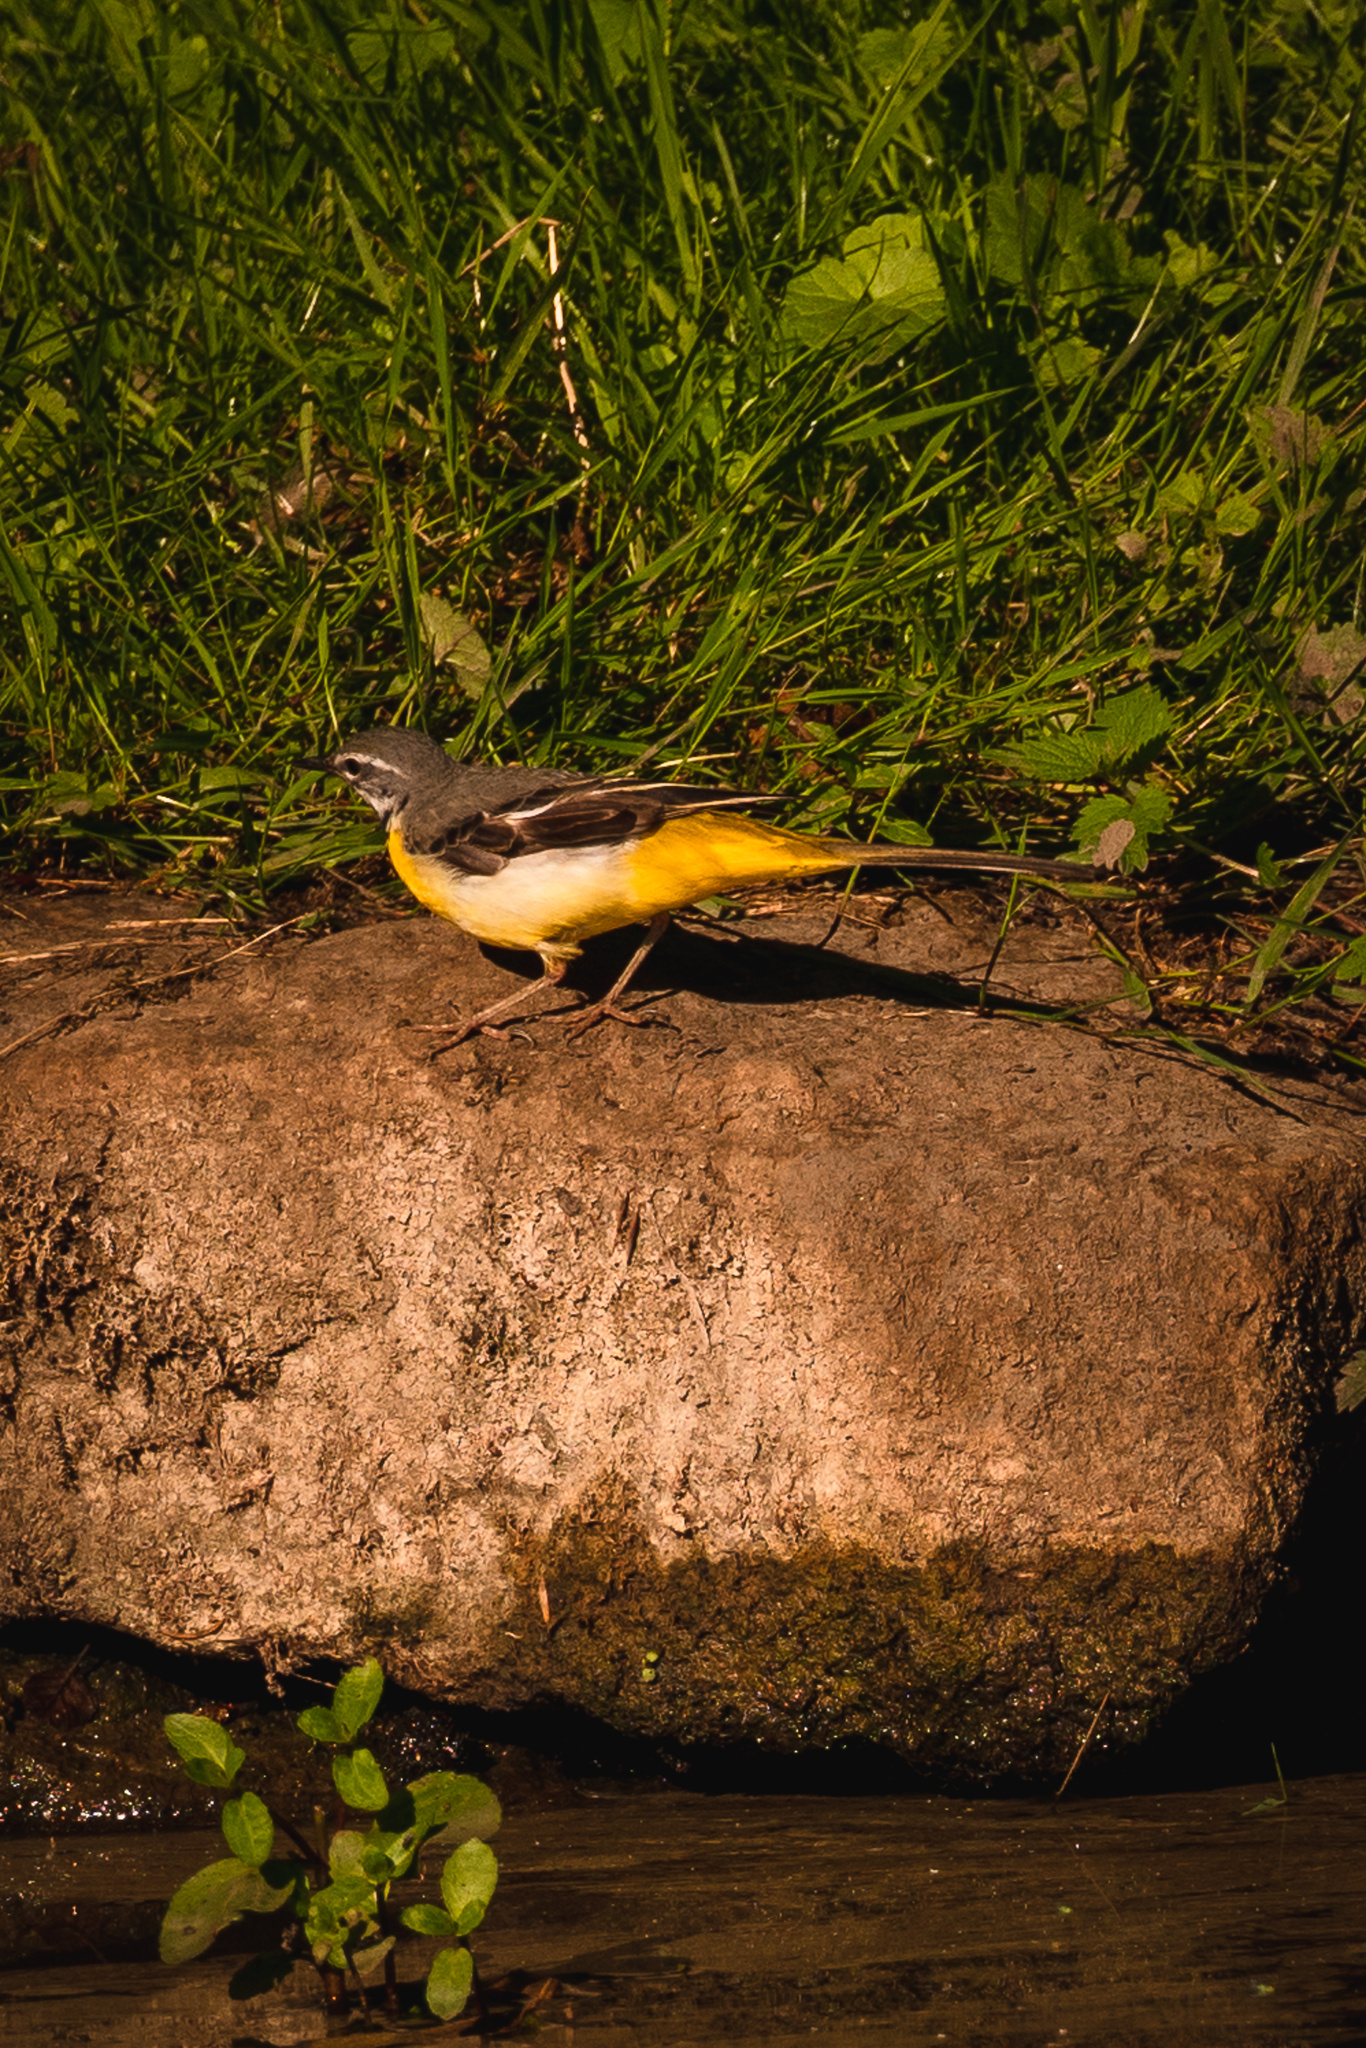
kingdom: Animalia
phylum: Chordata
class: Aves
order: Passeriformes
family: Motacillidae
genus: Motacilla
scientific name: Motacilla cinerea
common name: Grey wagtail
